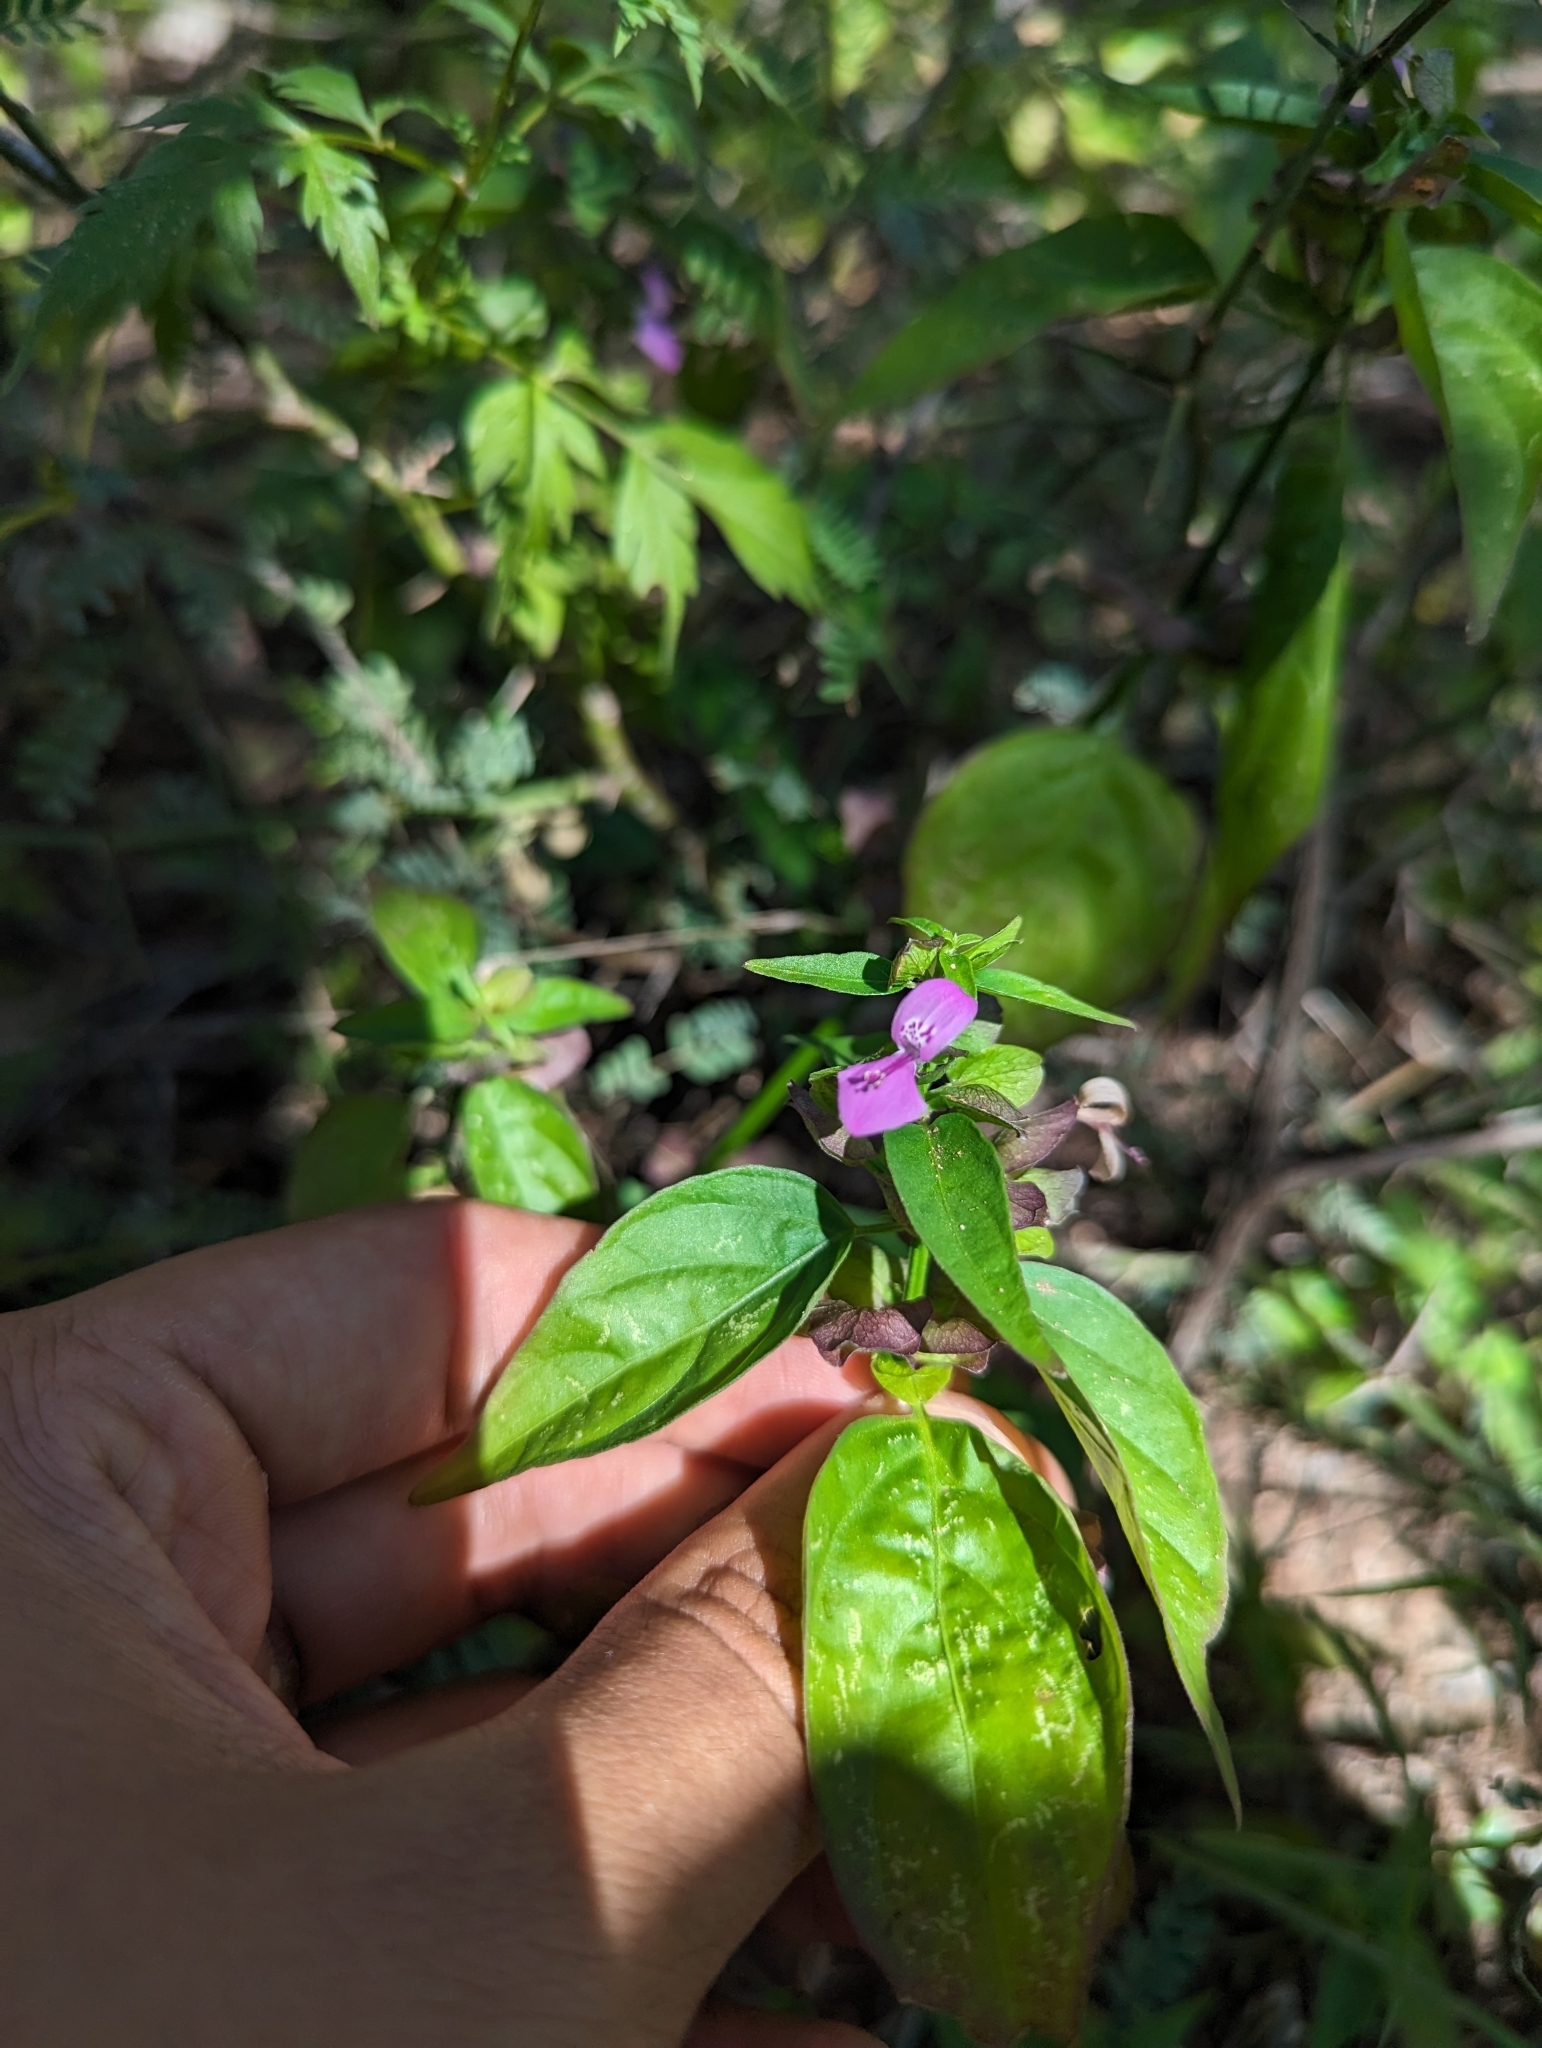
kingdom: Plantae
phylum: Tracheophyta
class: Magnoliopsida
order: Lamiales
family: Acanthaceae
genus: Dicliptera
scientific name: Dicliptera resupinata
